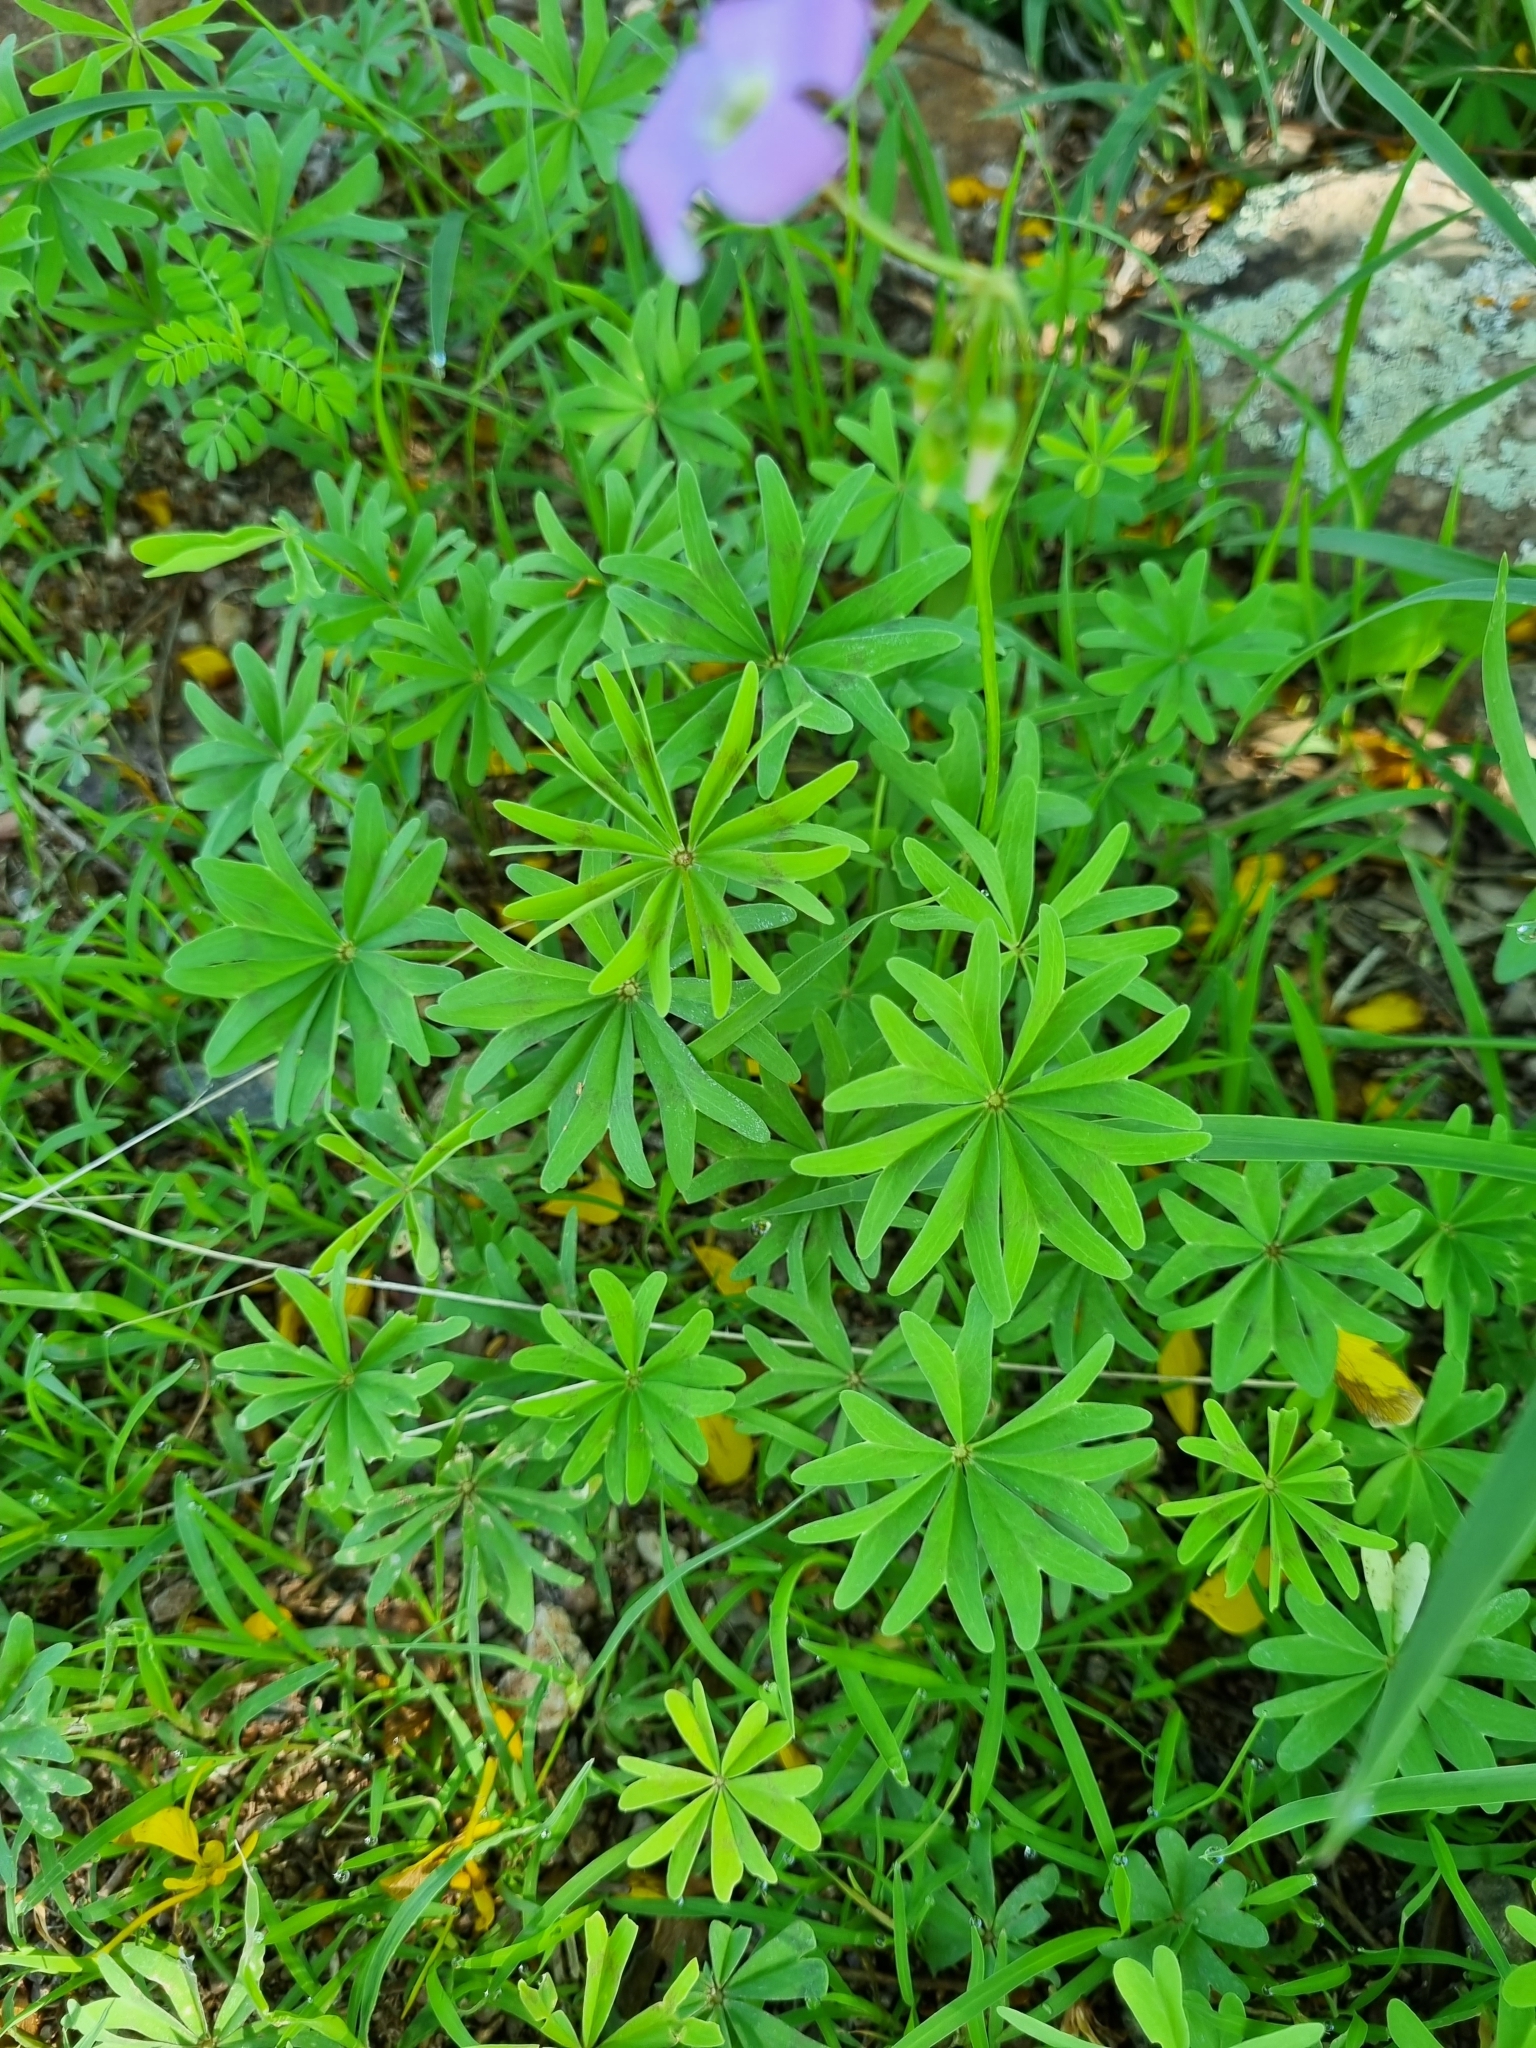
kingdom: Plantae
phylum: Tracheophyta
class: Magnoliopsida
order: Oxalidales
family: Oxalidaceae
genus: Oxalis
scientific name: Oxalis decaphylla
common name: Ten-leaved pink-sorrel
